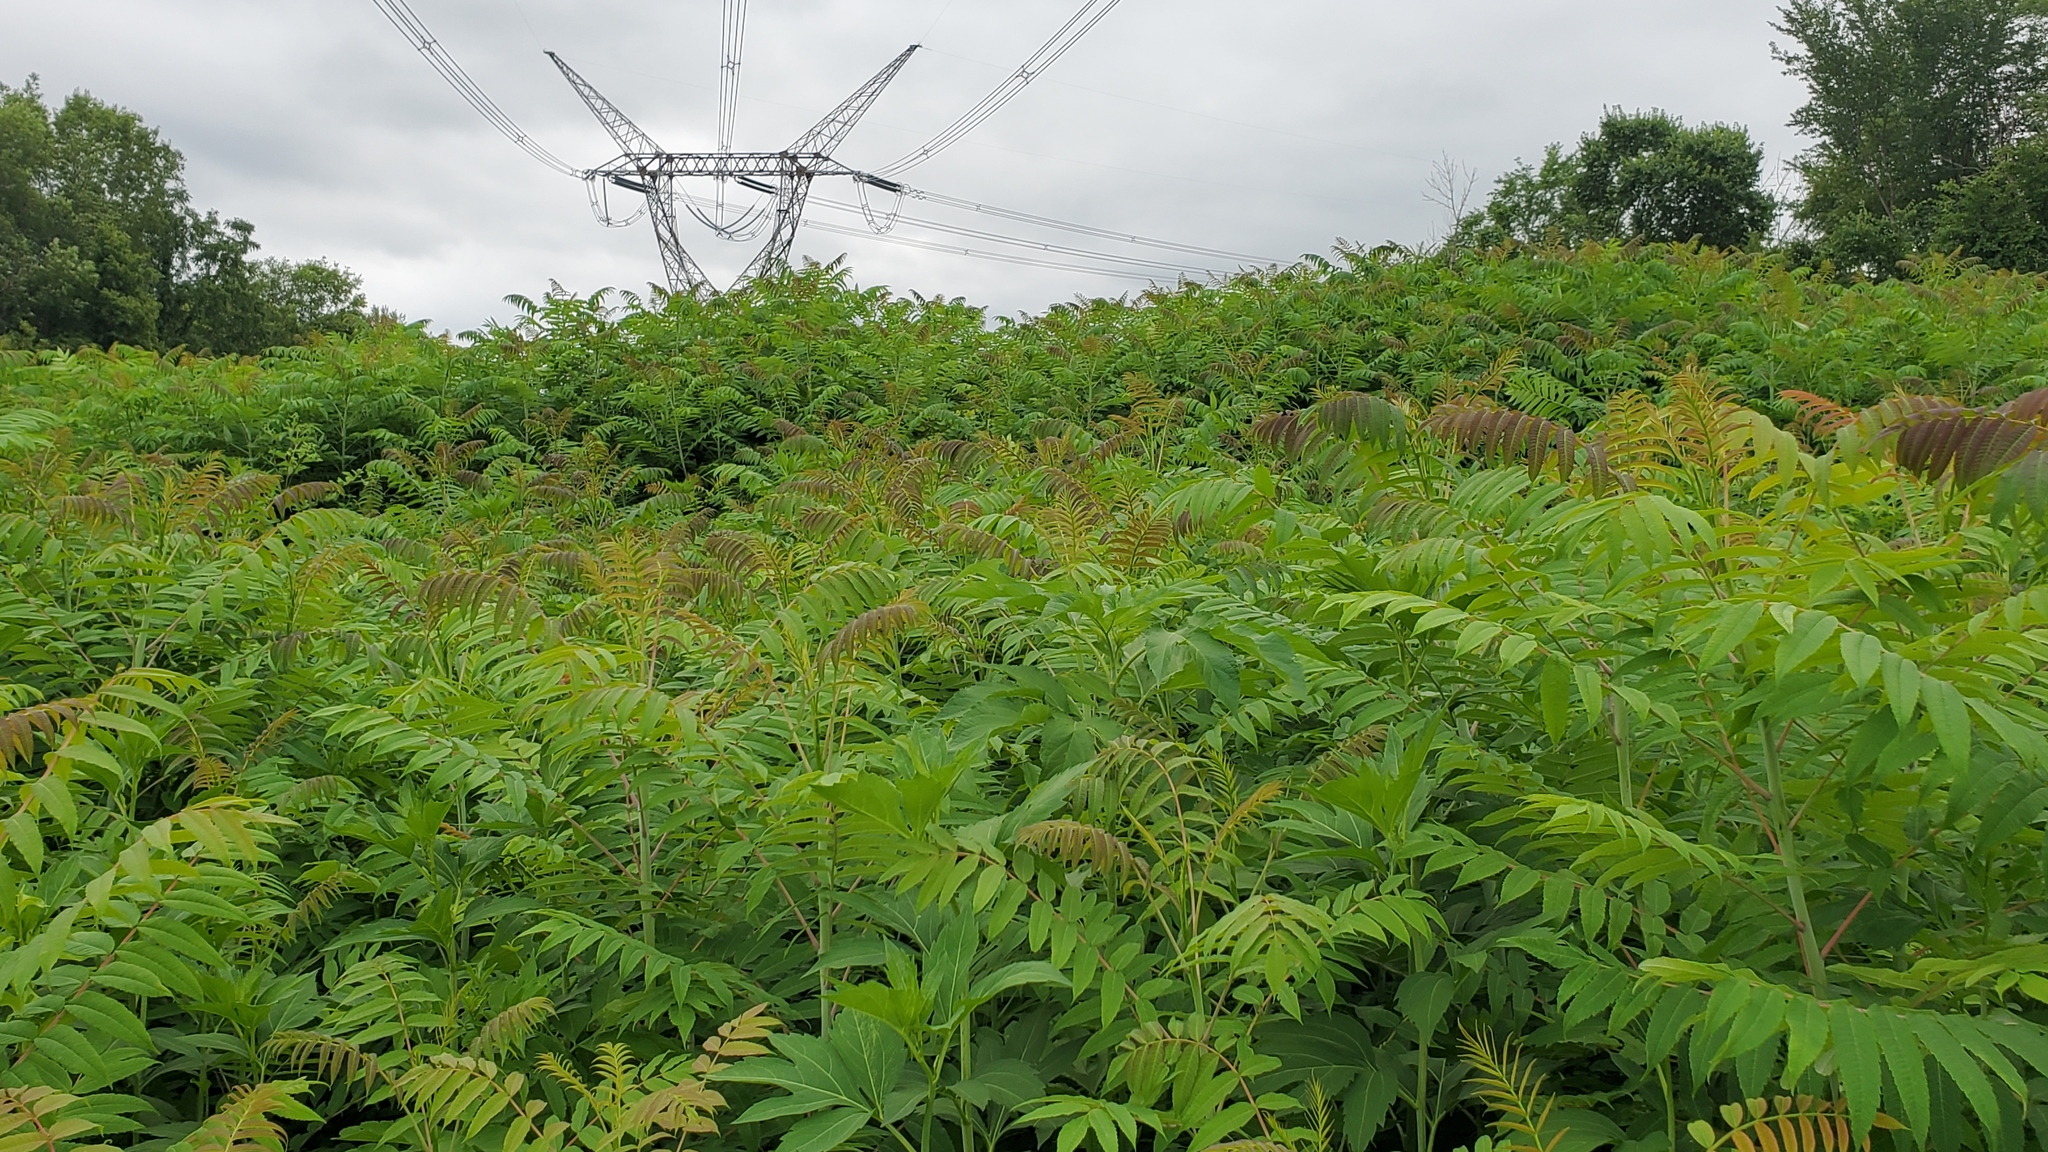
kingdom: Plantae
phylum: Tracheophyta
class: Magnoliopsida
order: Sapindales
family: Anacardiaceae
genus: Rhus
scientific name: Rhus glabra
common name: Scarlet sumac
